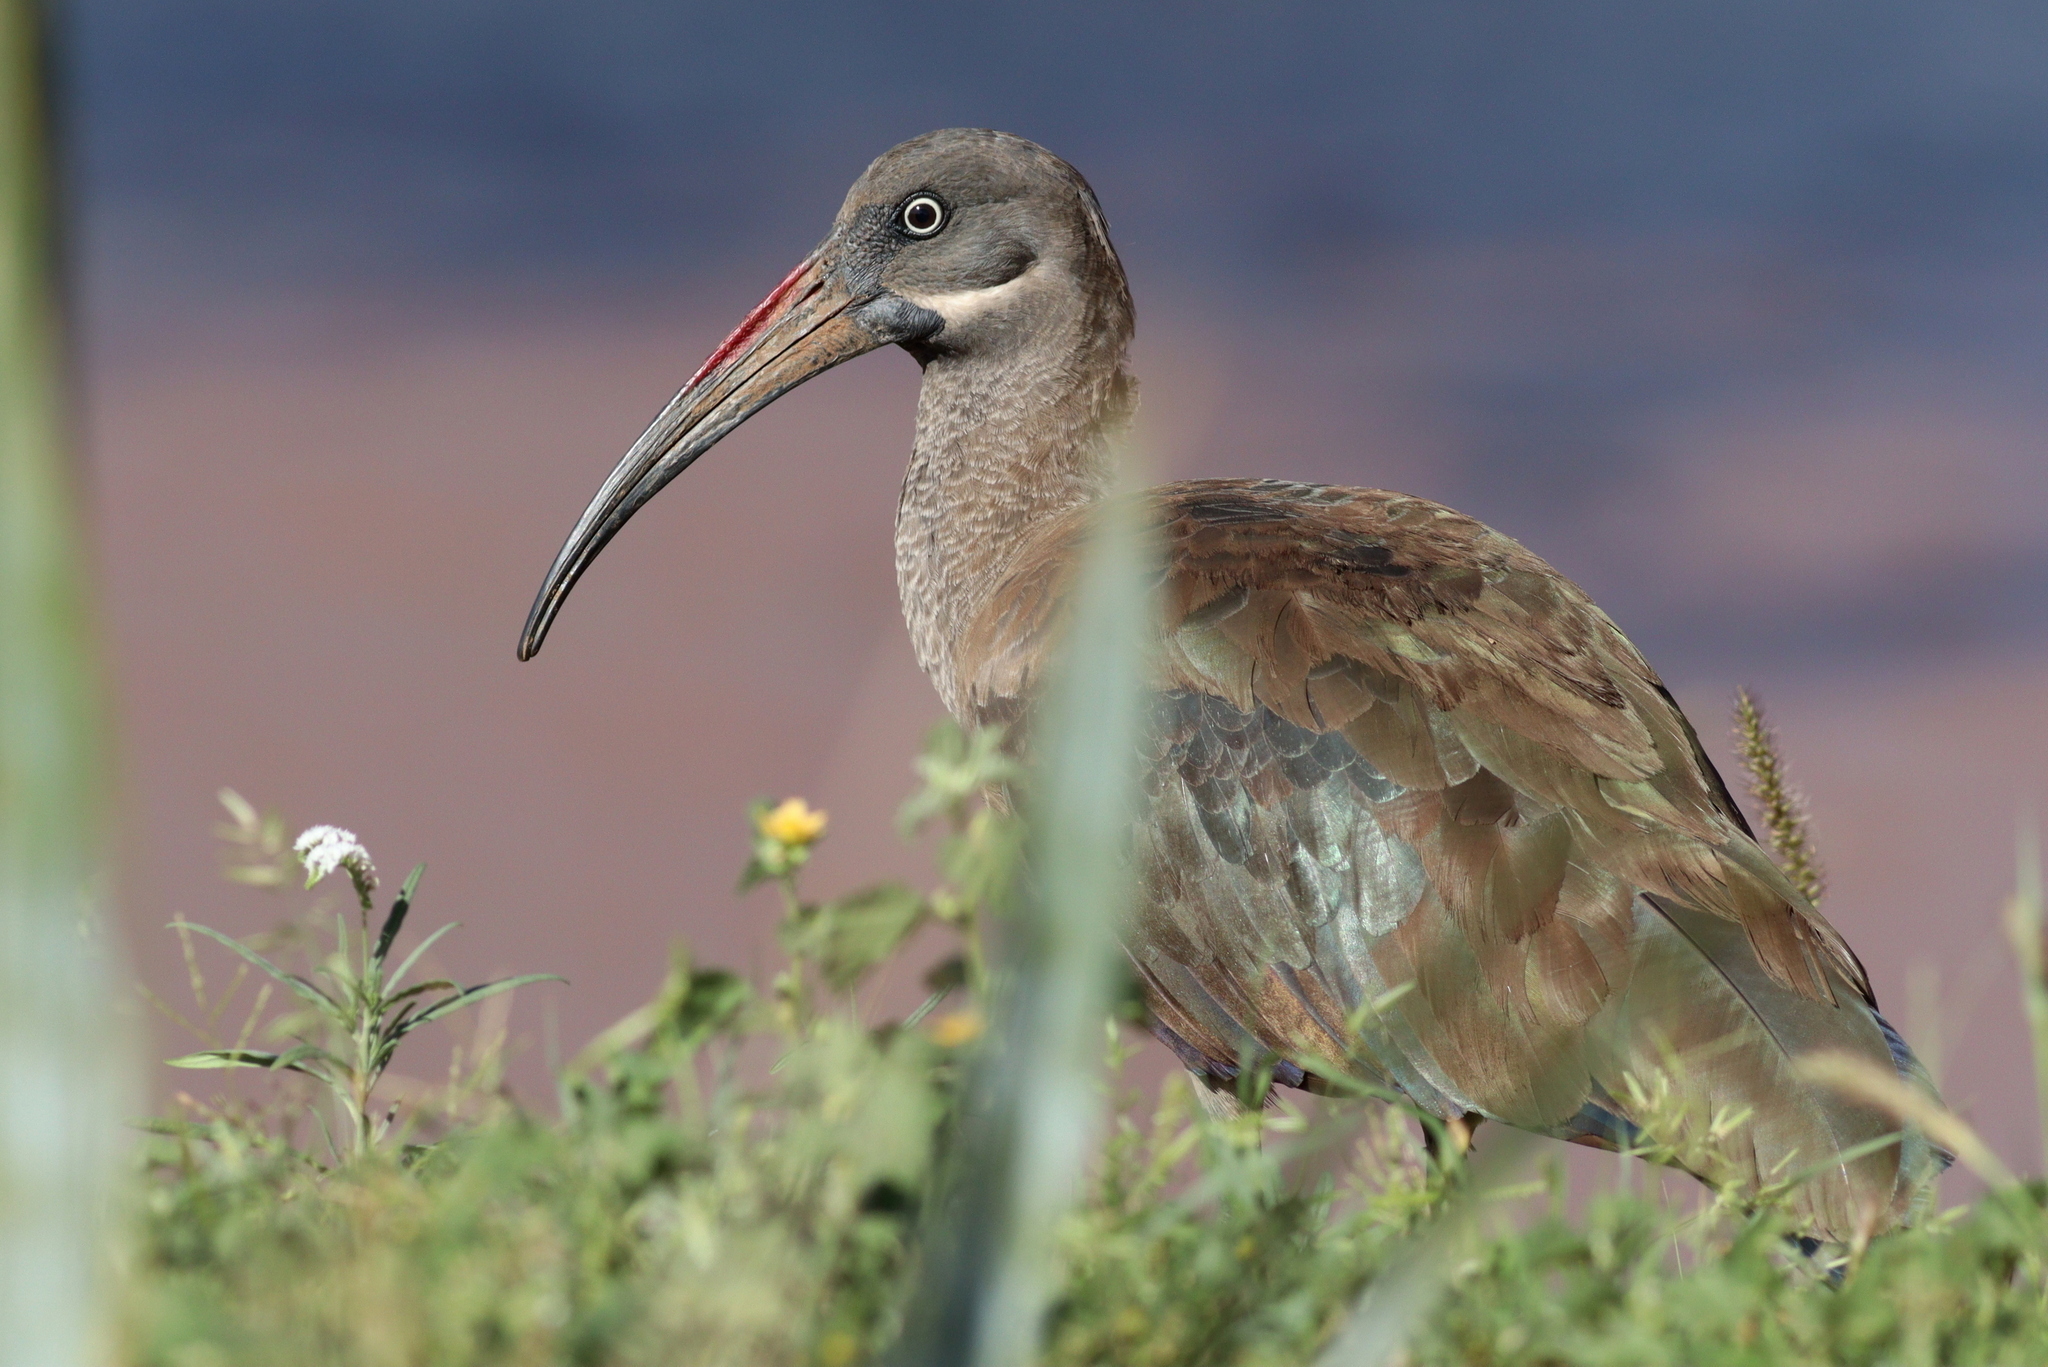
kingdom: Animalia
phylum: Chordata
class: Aves
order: Pelecaniformes
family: Threskiornithidae
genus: Bostrychia
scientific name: Bostrychia hagedash
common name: Hadada ibis
